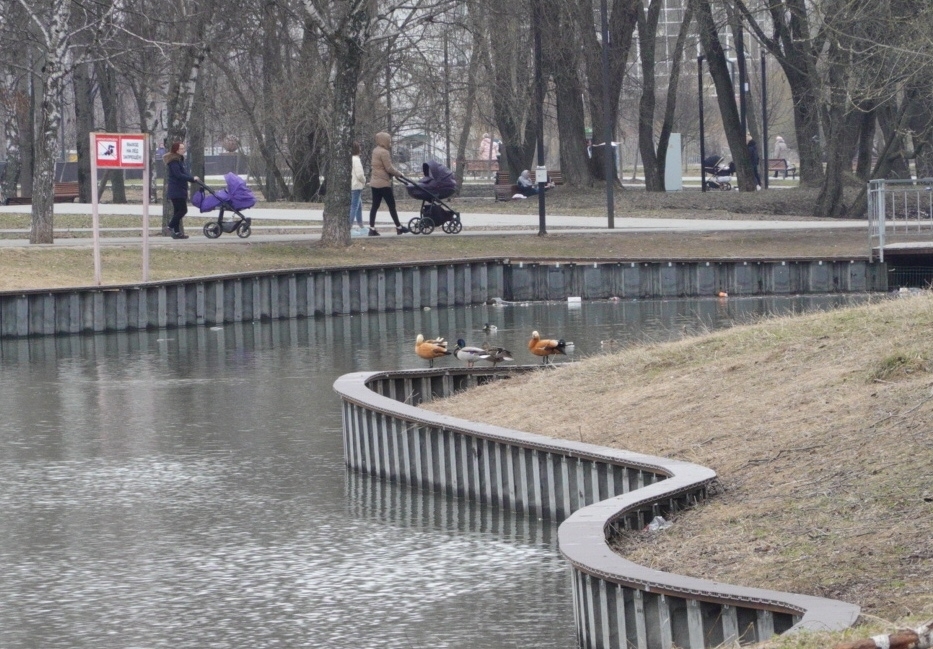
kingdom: Animalia
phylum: Chordata
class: Aves
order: Anseriformes
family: Anatidae
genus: Tadorna
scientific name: Tadorna ferruginea
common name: Ruddy shelduck
